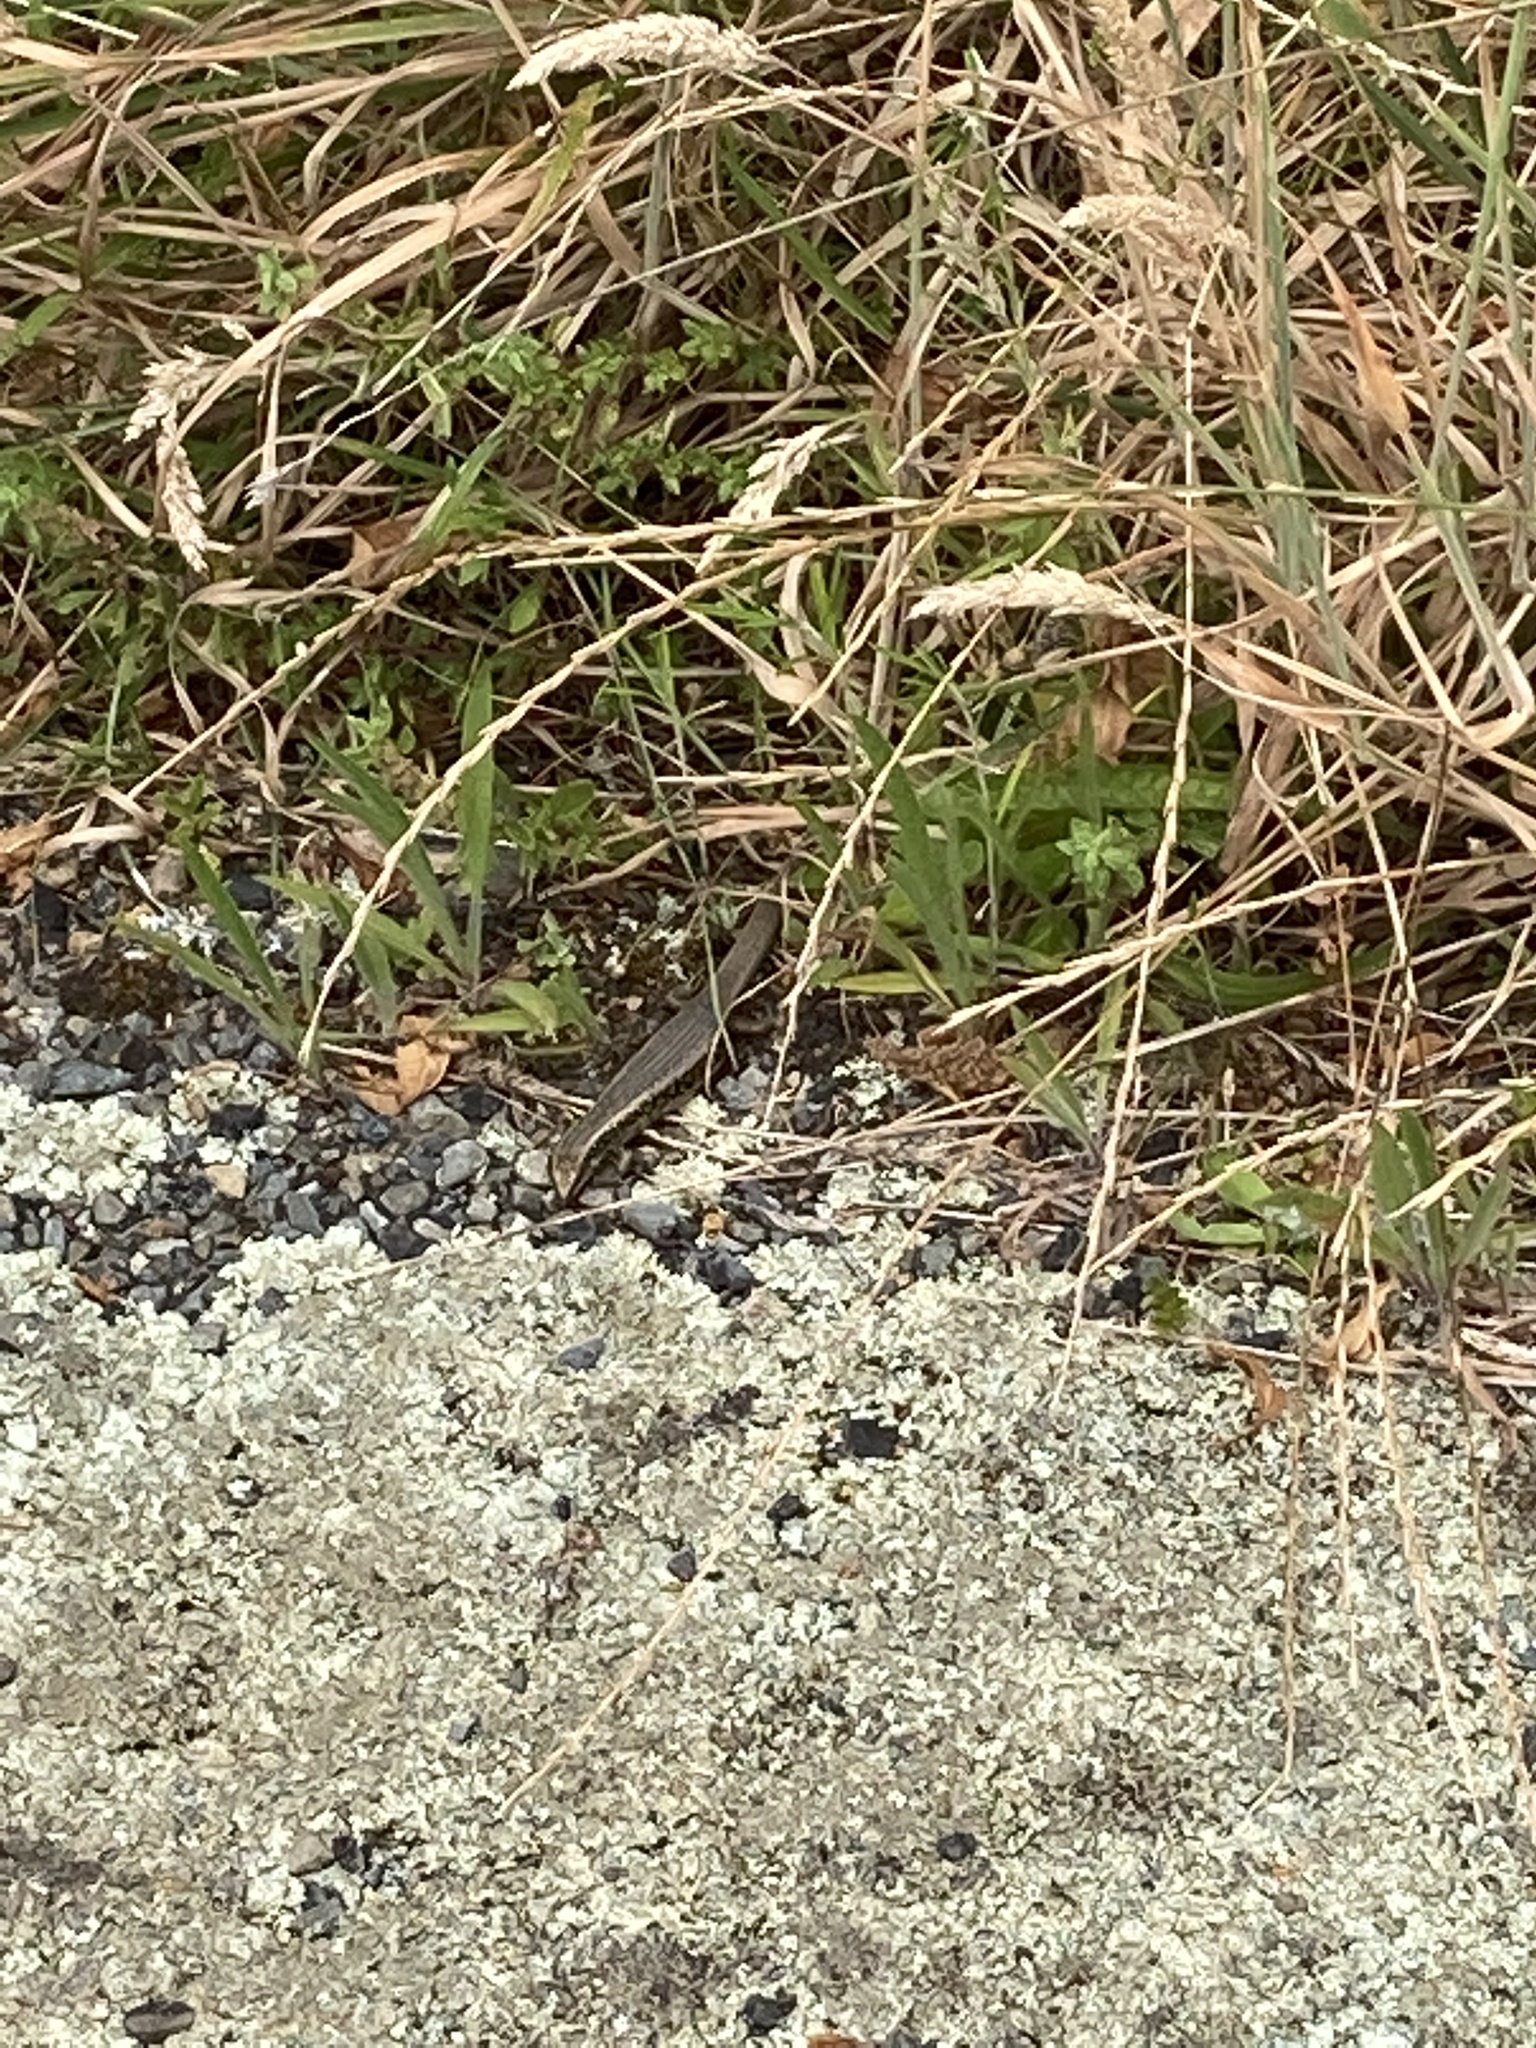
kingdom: Animalia
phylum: Chordata
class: Squamata
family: Scincidae
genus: Oligosoma
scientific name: Oligosoma kokowai
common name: Northern spotted skink
